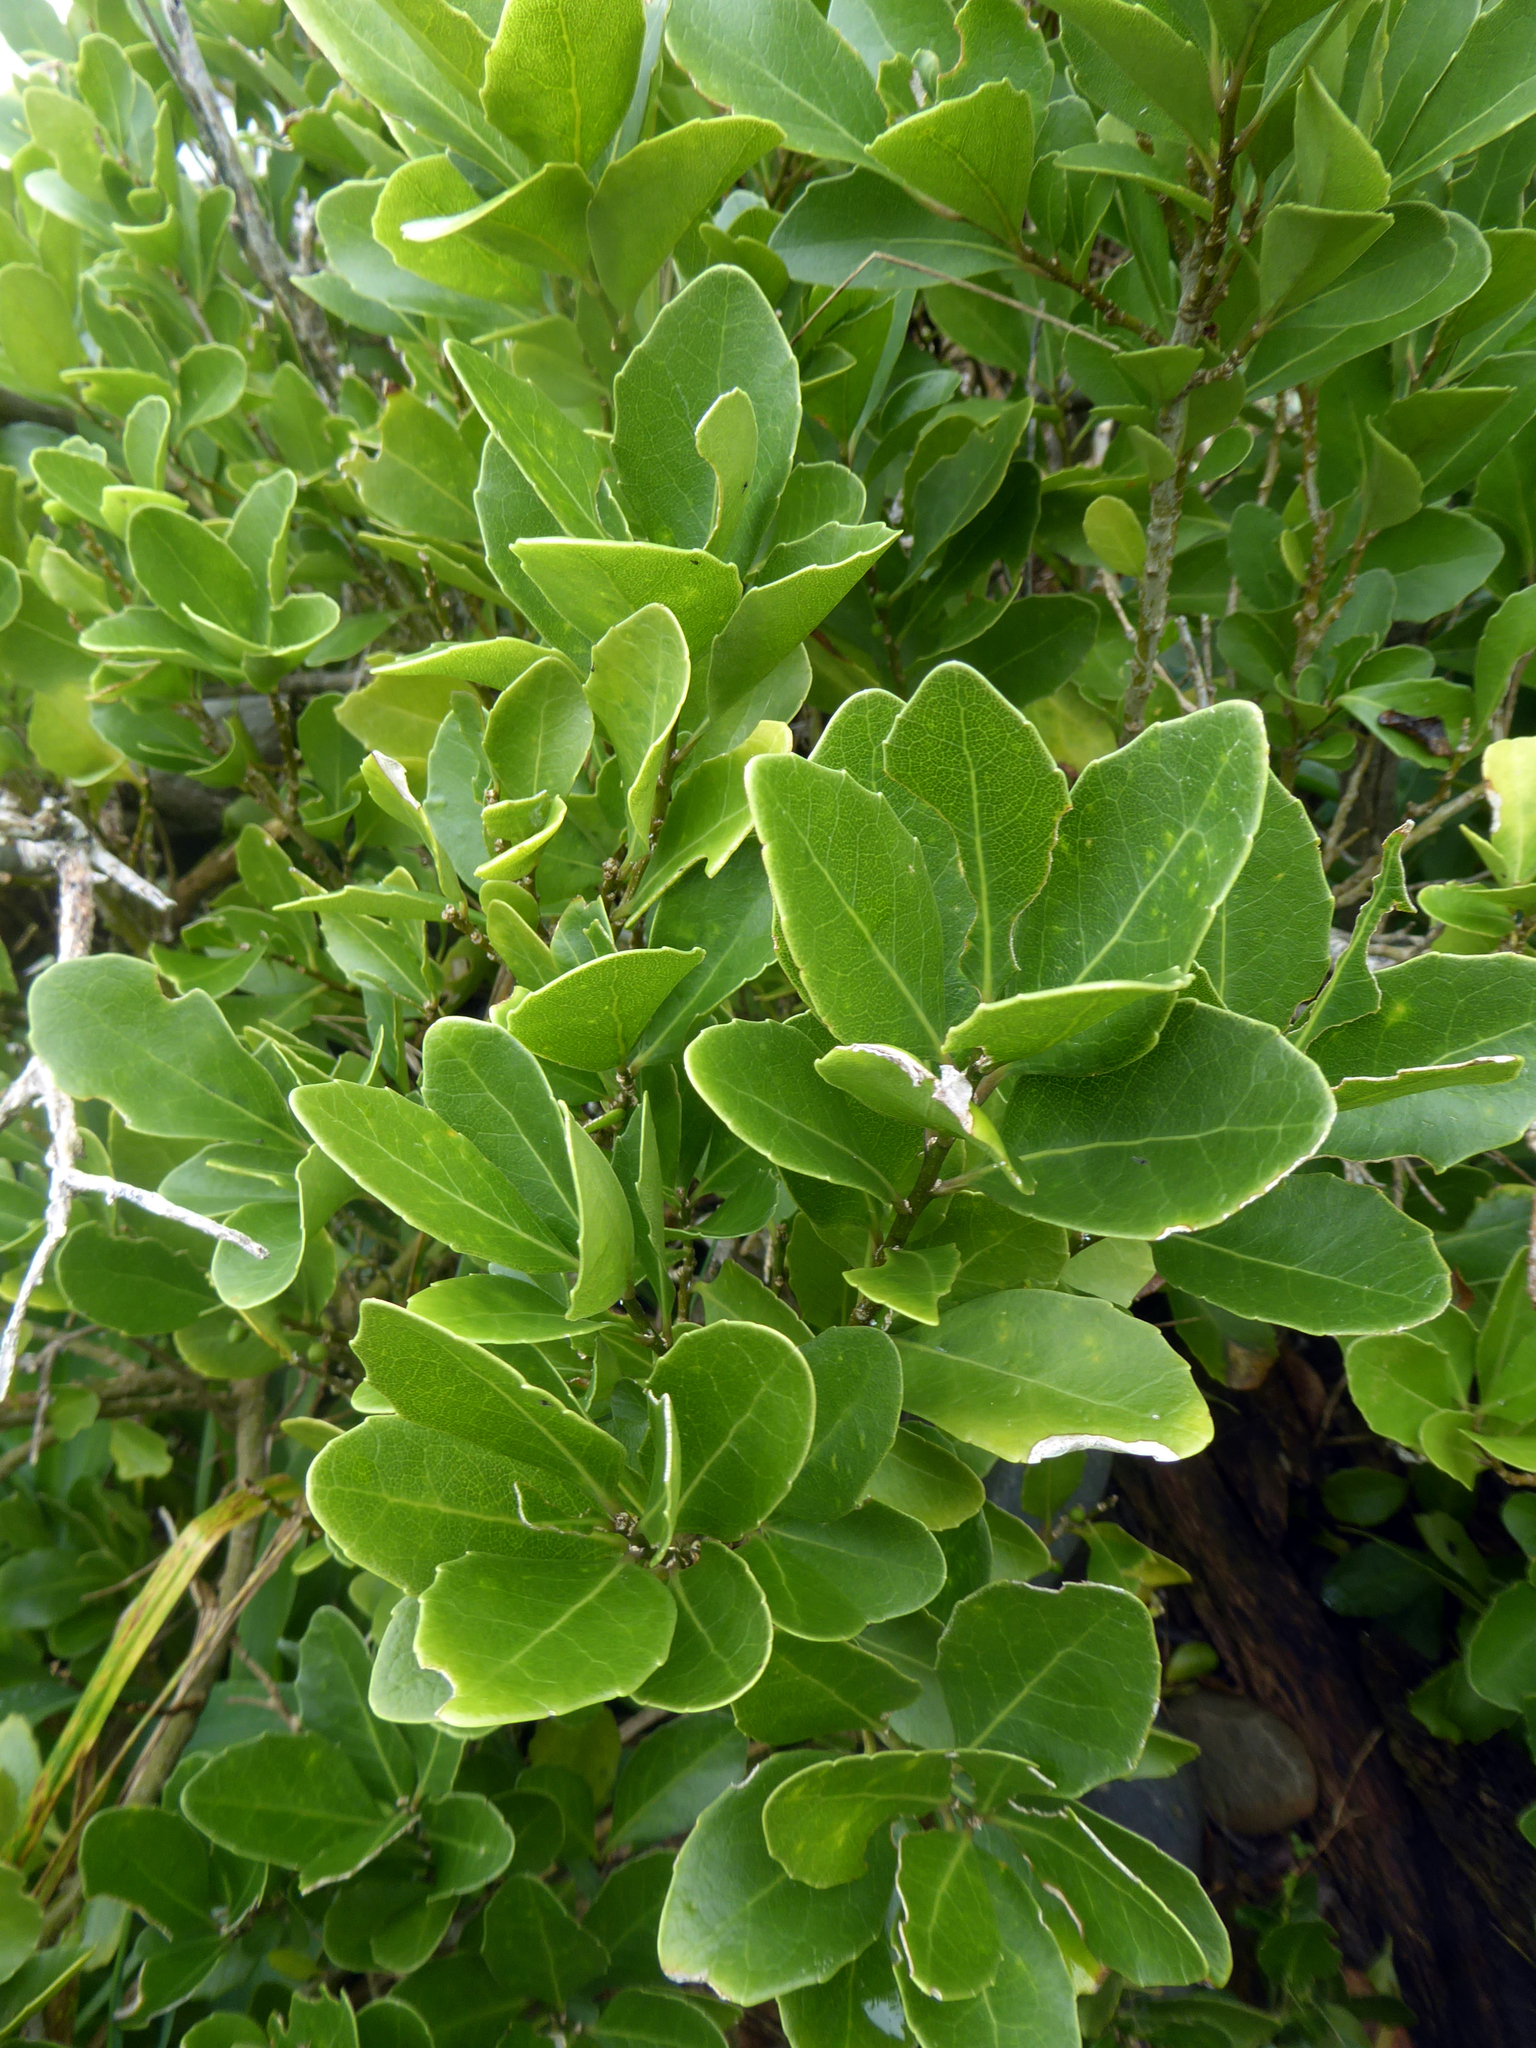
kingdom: Plantae
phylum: Tracheophyta
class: Magnoliopsida
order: Malpighiales
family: Violaceae
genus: Melicytus
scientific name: Melicytus novae-zelandiae
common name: Coastal mahoe
